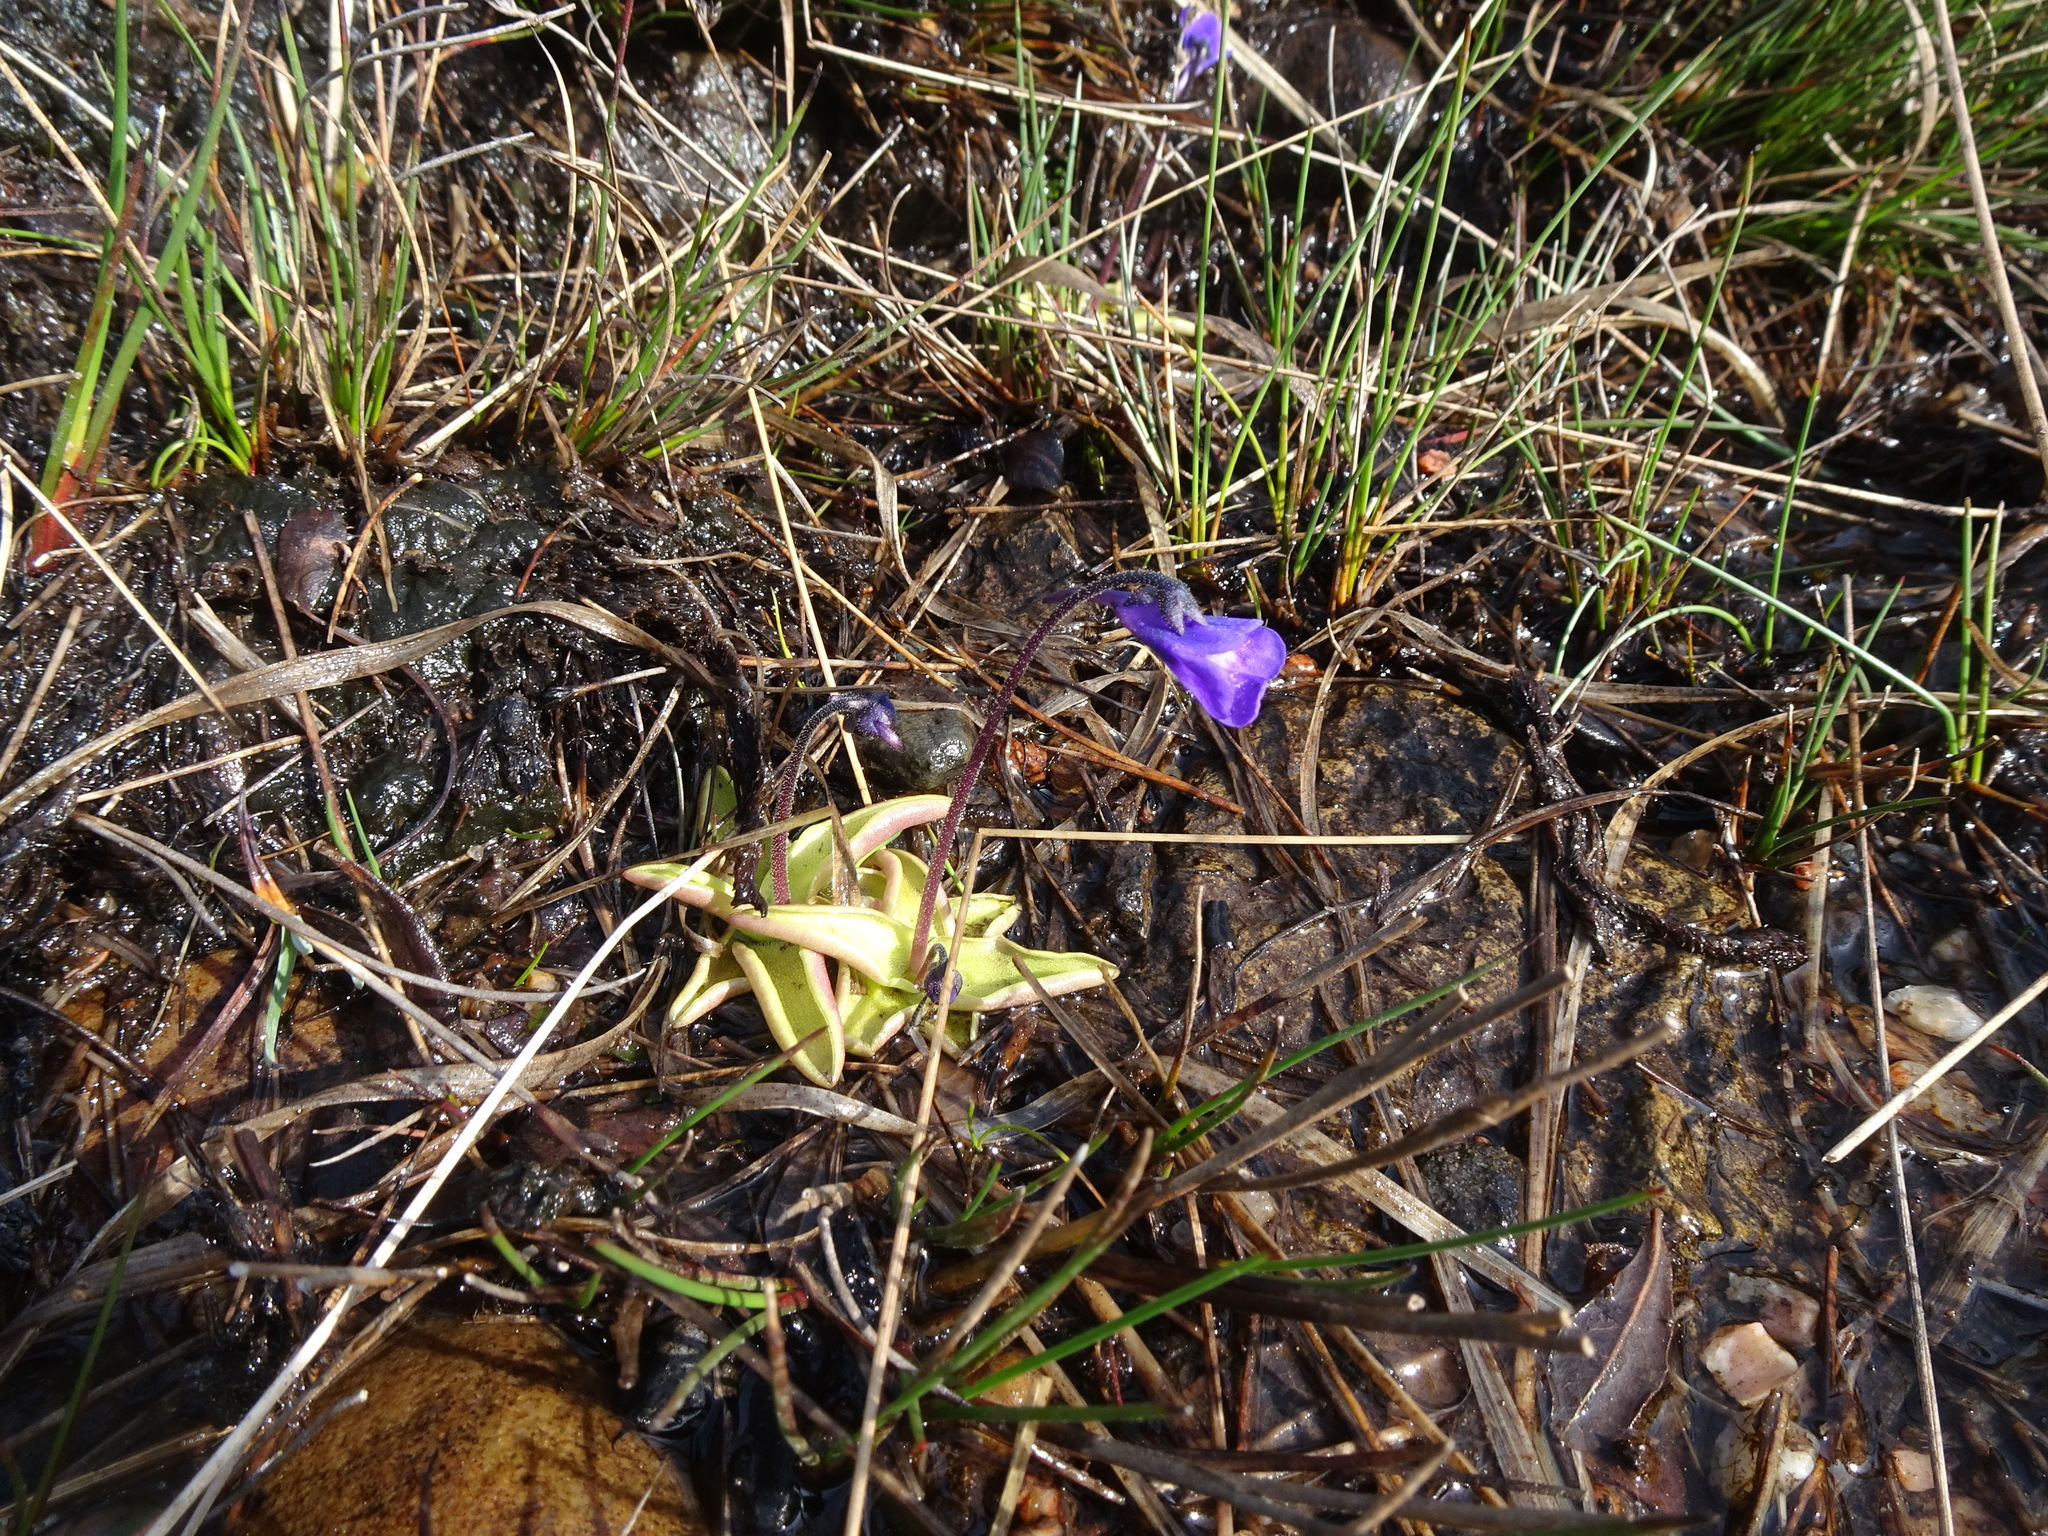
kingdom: Plantae
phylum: Tracheophyta
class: Magnoliopsida
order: Lamiales
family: Lentibulariaceae
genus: Pinguicula
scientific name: Pinguicula vulgaris
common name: Common butterwort
